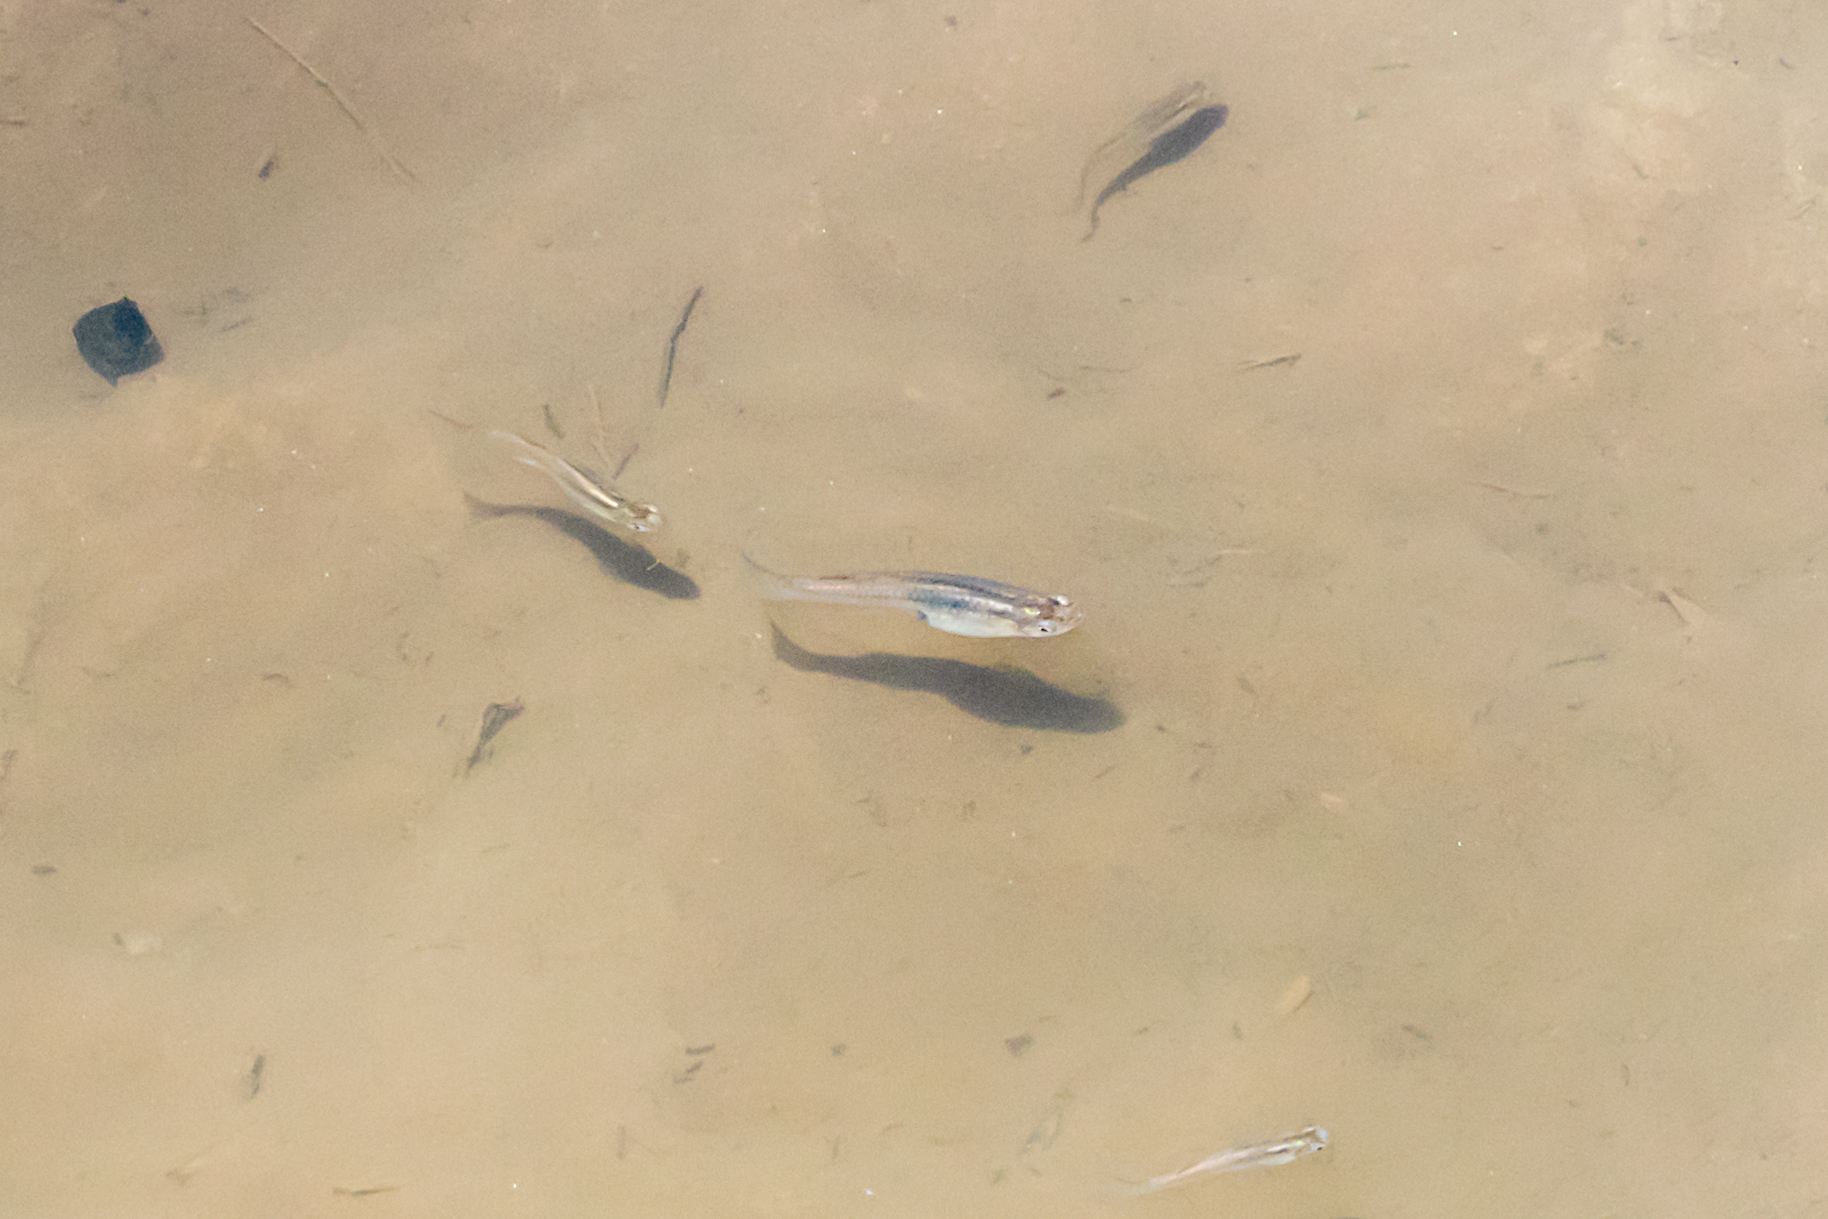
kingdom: Animalia
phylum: Chordata
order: Cyprinodontiformes
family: Poeciliidae
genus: Gambusia
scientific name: Gambusia holbrooki
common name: Eastern mosquitofish
